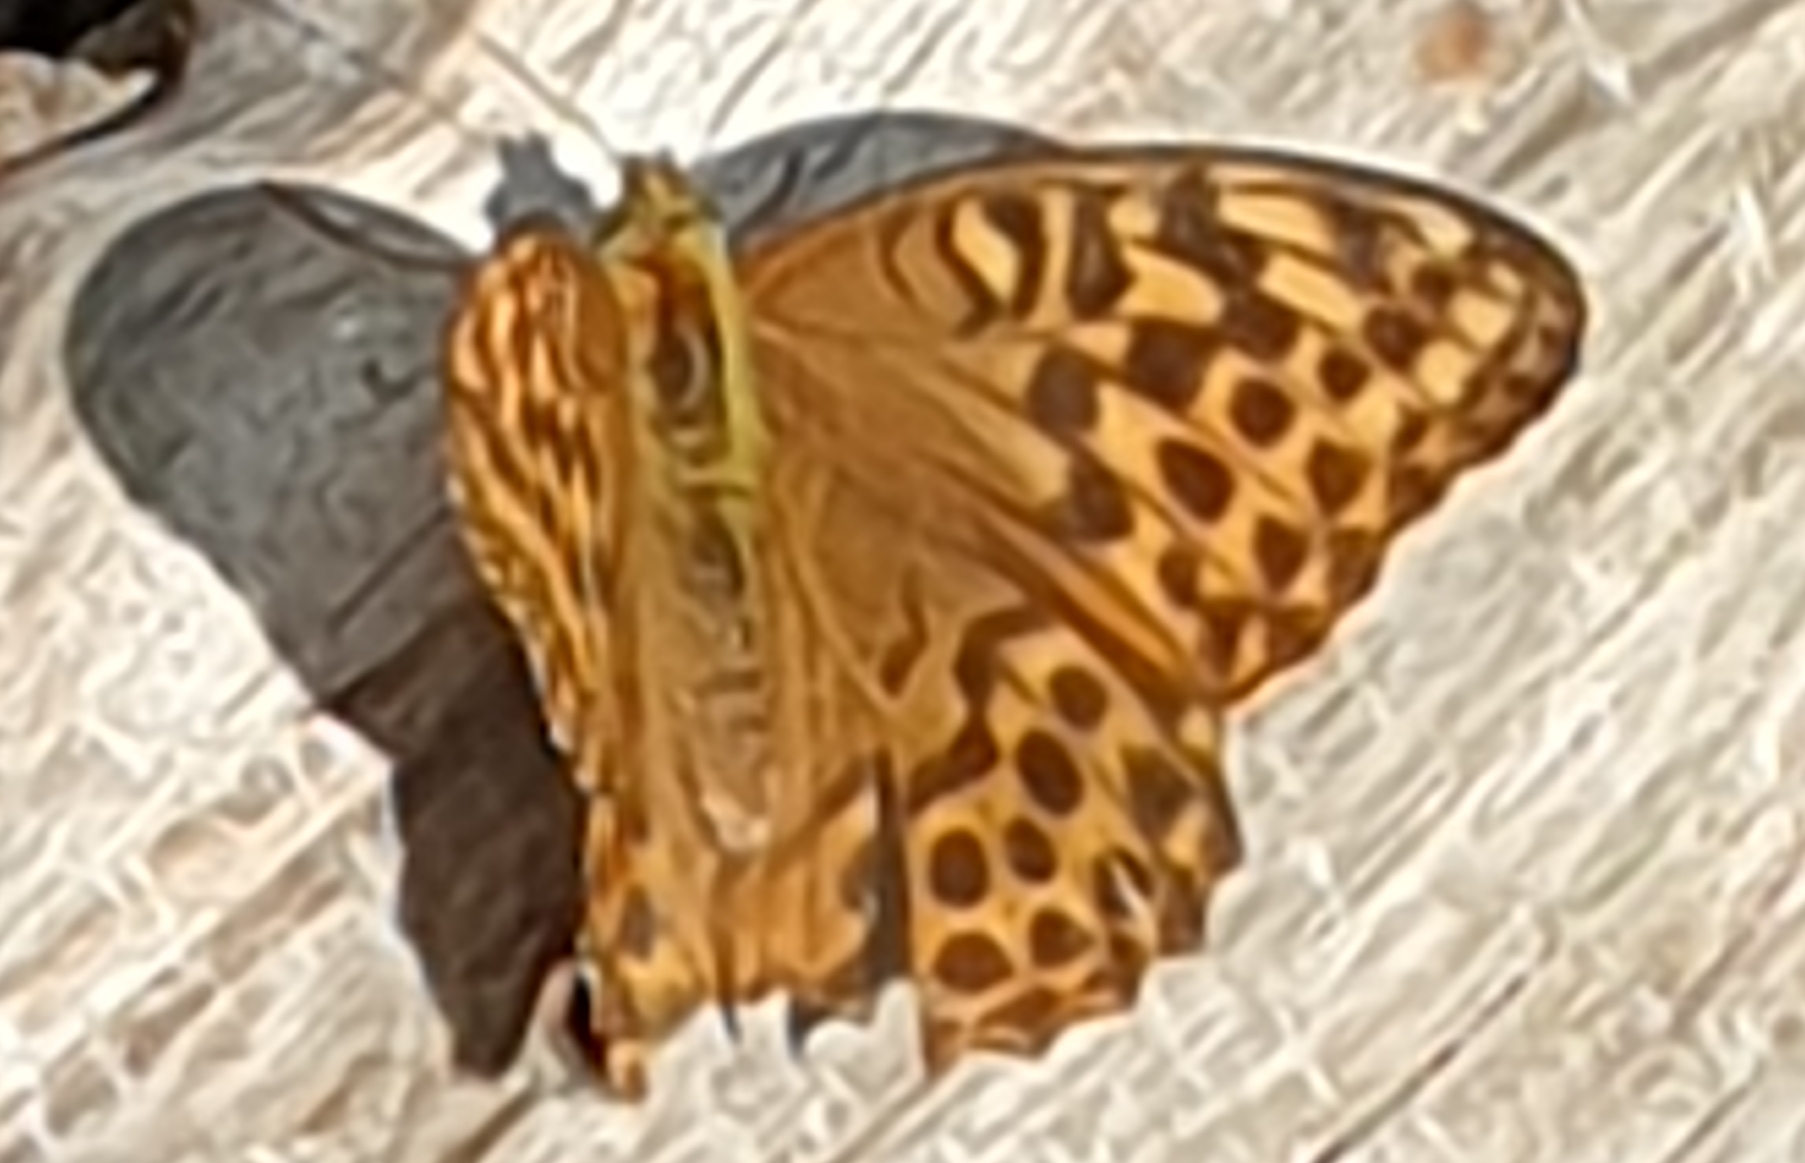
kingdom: Animalia
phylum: Arthropoda
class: Insecta
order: Lepidoptera
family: Nymphalidae
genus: Argynnis
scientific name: Argynnis paphia
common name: Silver-washed fritillary
